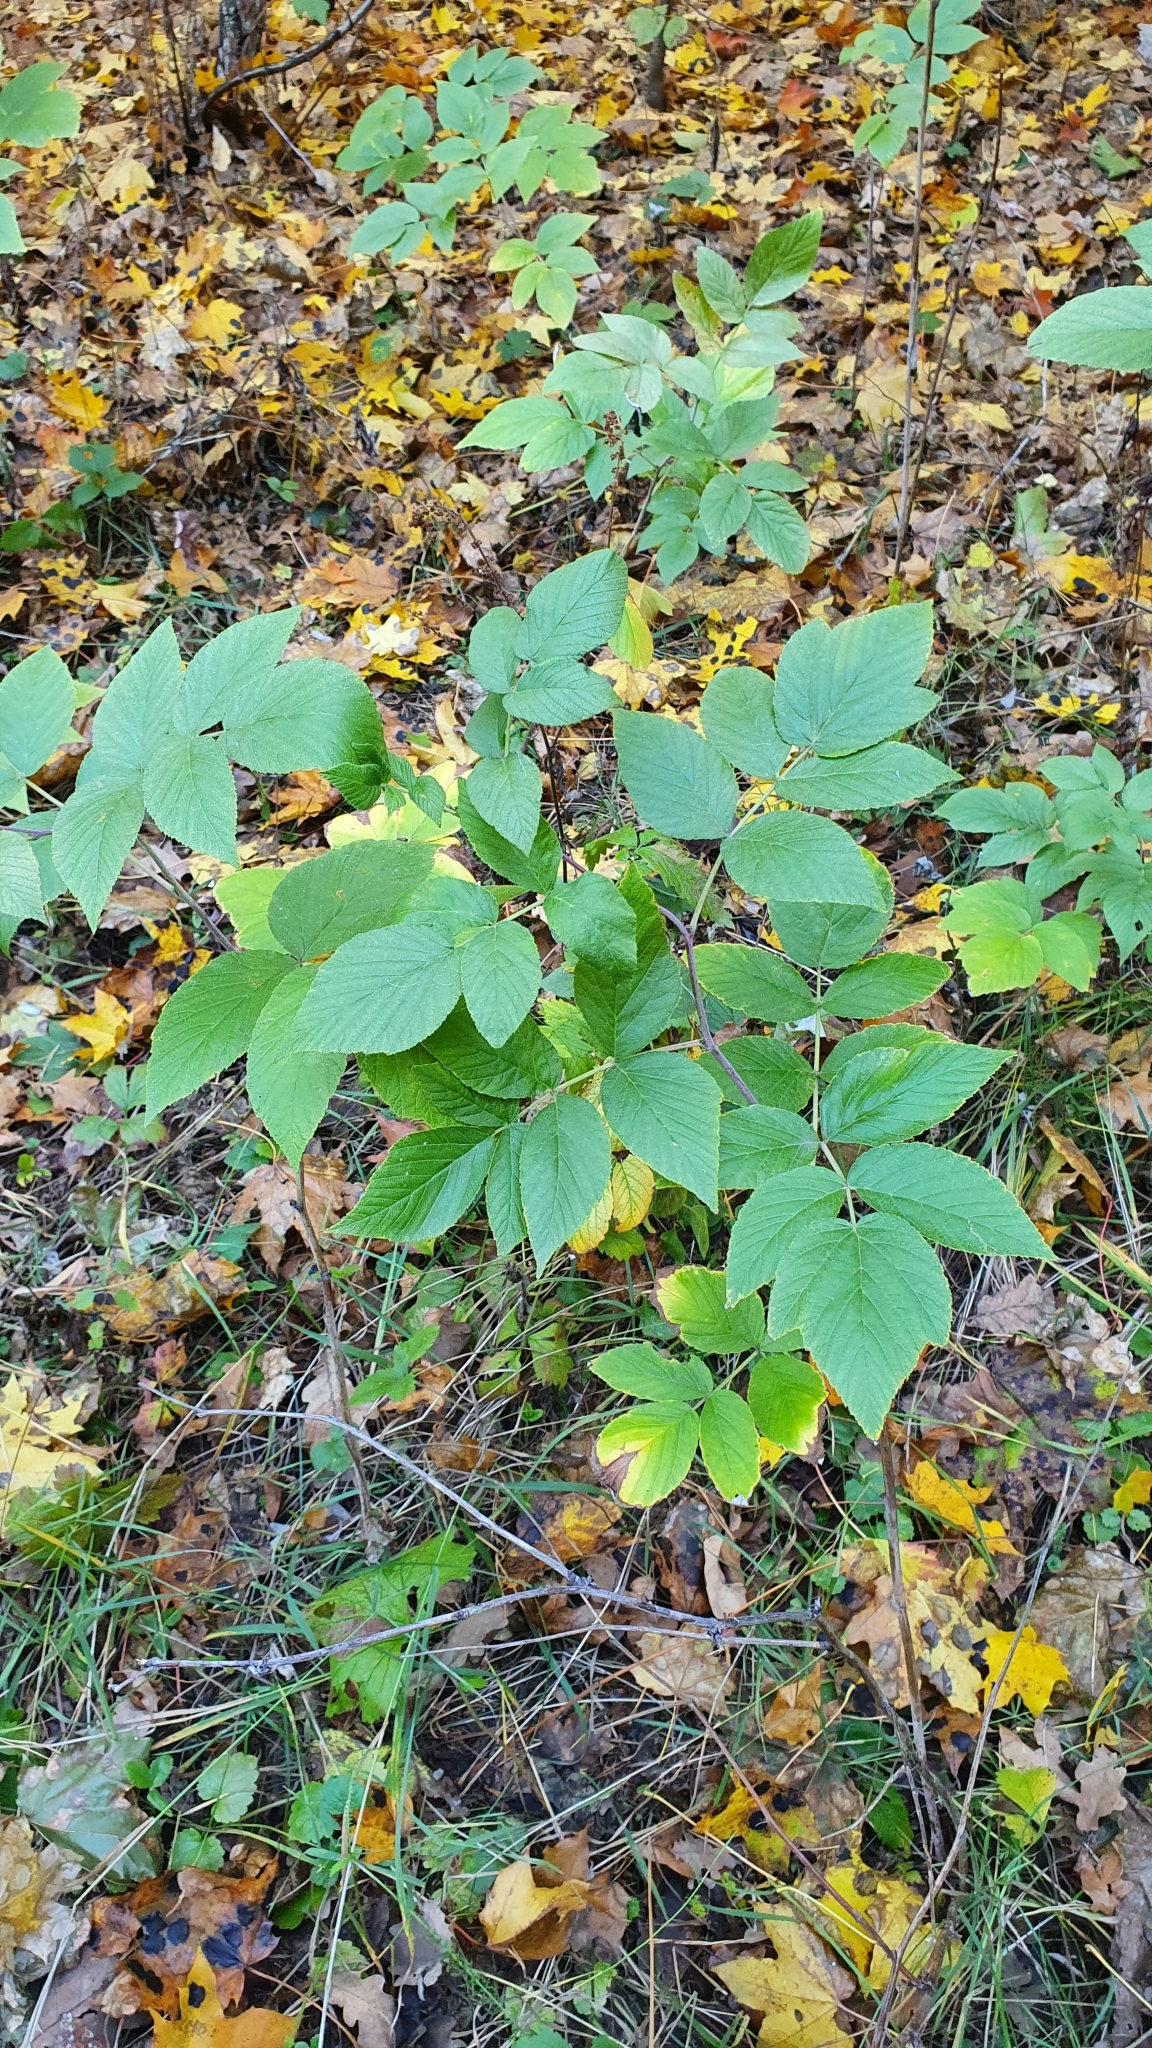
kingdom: Plantae
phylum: Tracheophyta
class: Magnoliopsida
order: Rosales
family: Rosaceae
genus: Rubus
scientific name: Rubus idaeus
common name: Raspberry
